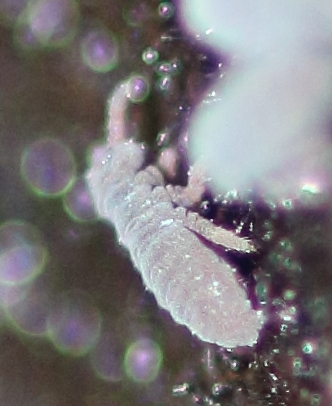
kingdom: Animalia
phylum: Arthropoda
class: Collembola
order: Poduromorpha
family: Poduridae
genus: Podura
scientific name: Podura aquatica
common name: Water springtail
